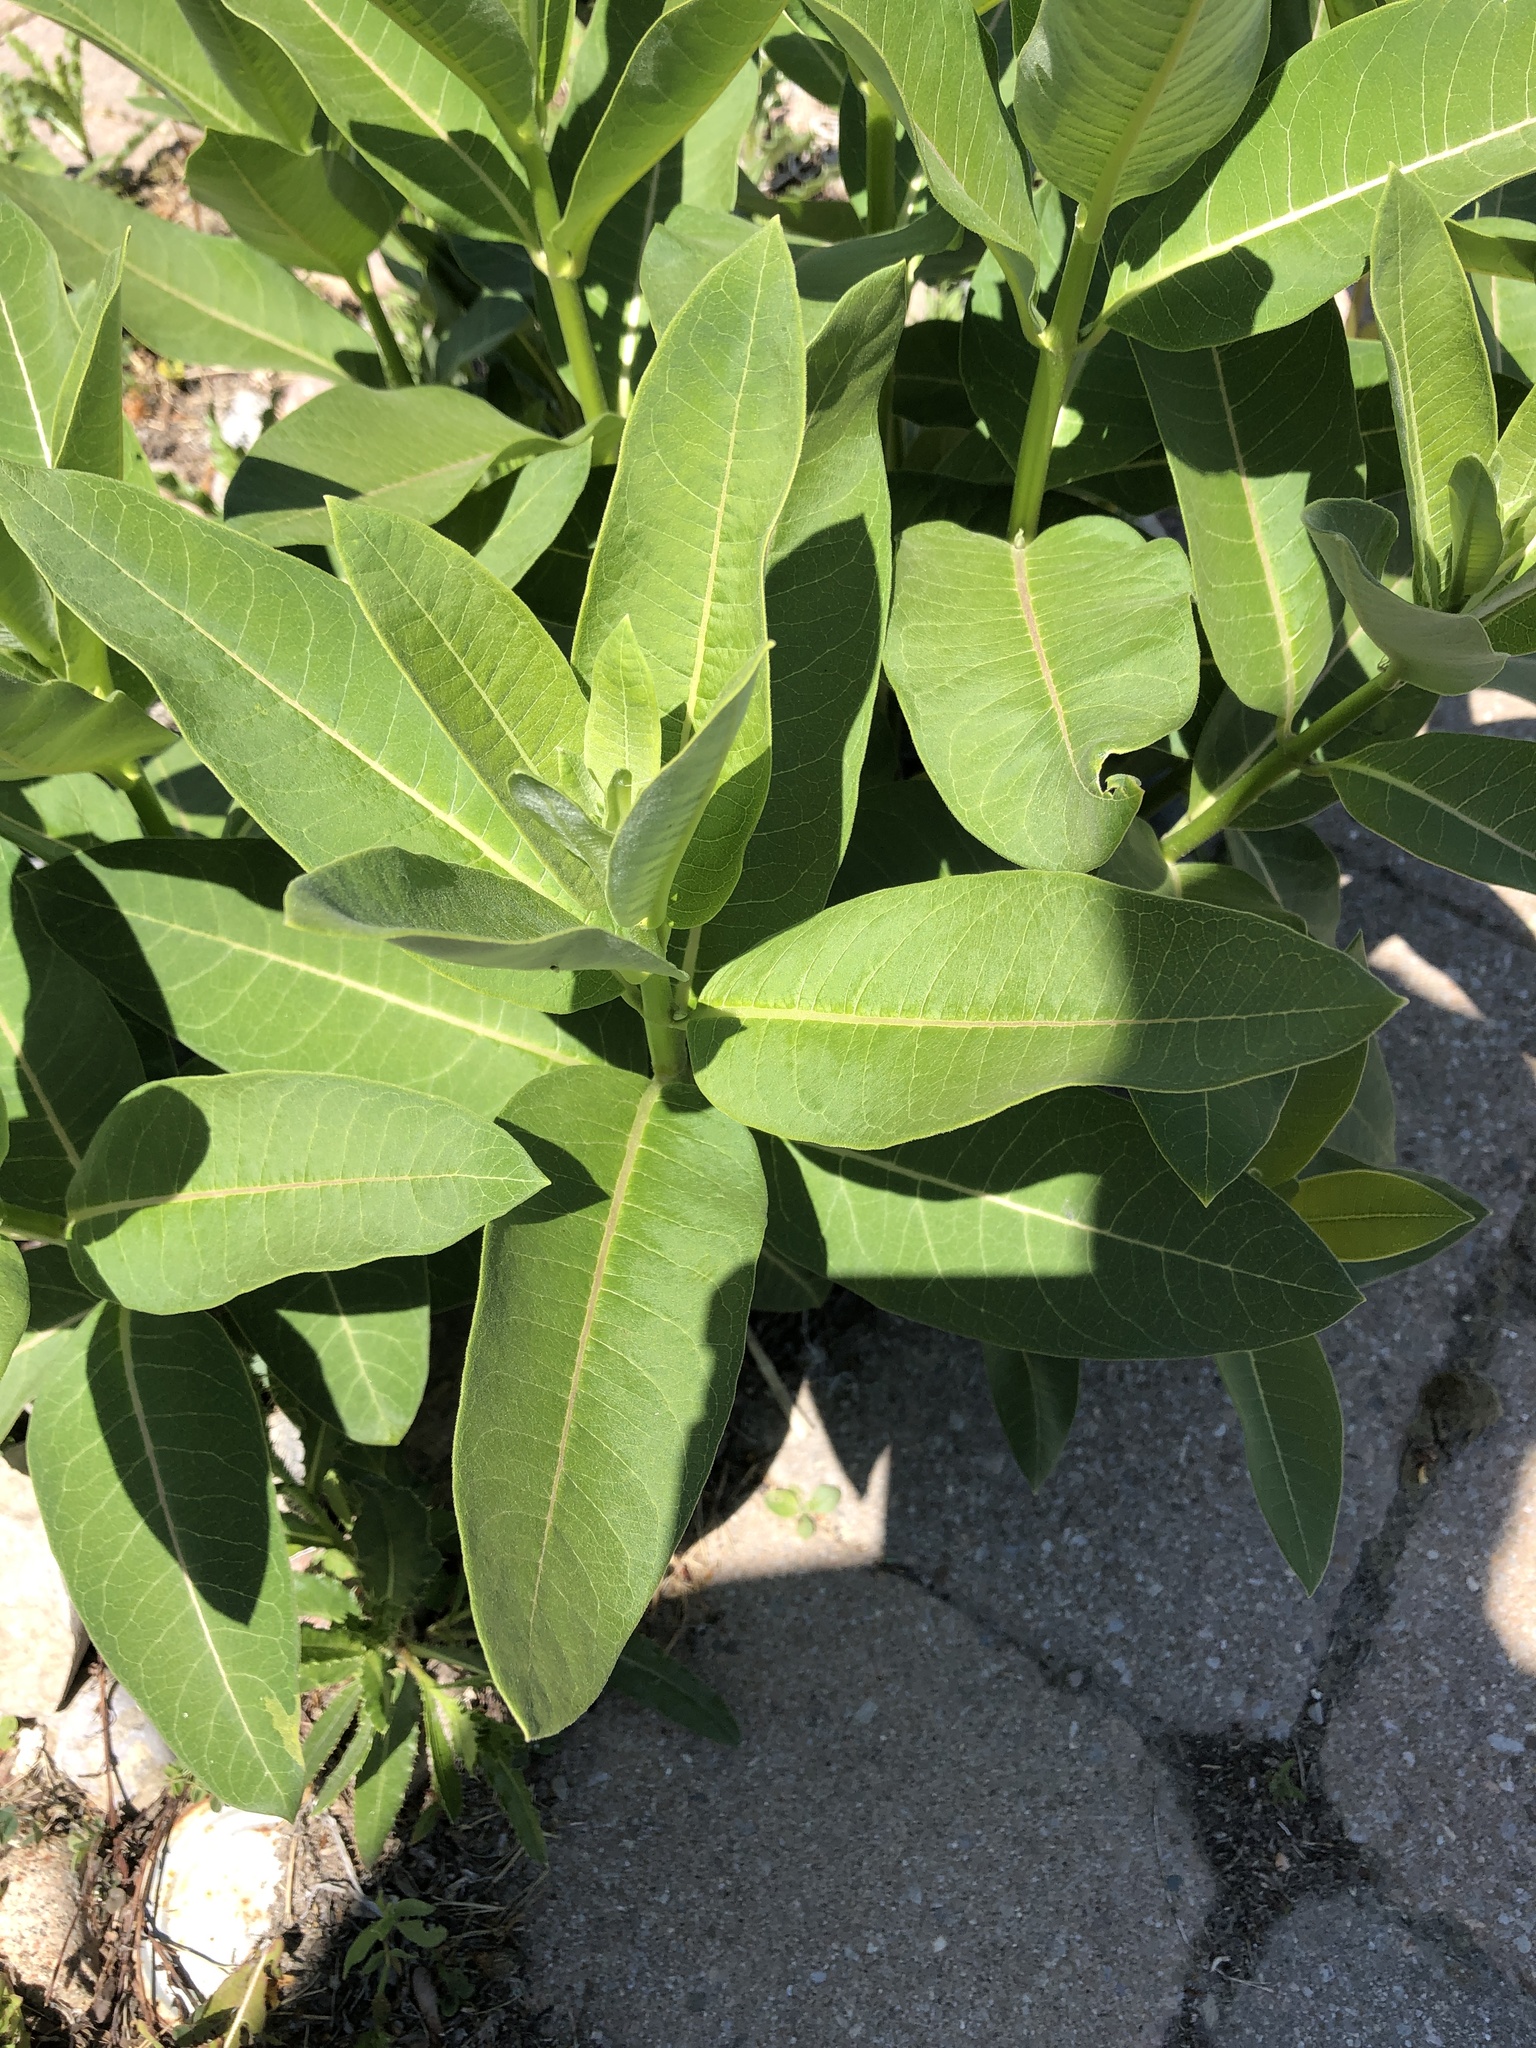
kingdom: Plantae
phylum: Tracheophyta
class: Magnoliopsida
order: Gentianales
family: Apocynaceae
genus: Asclepias
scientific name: Asclepias syriaca
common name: Common milkweed
